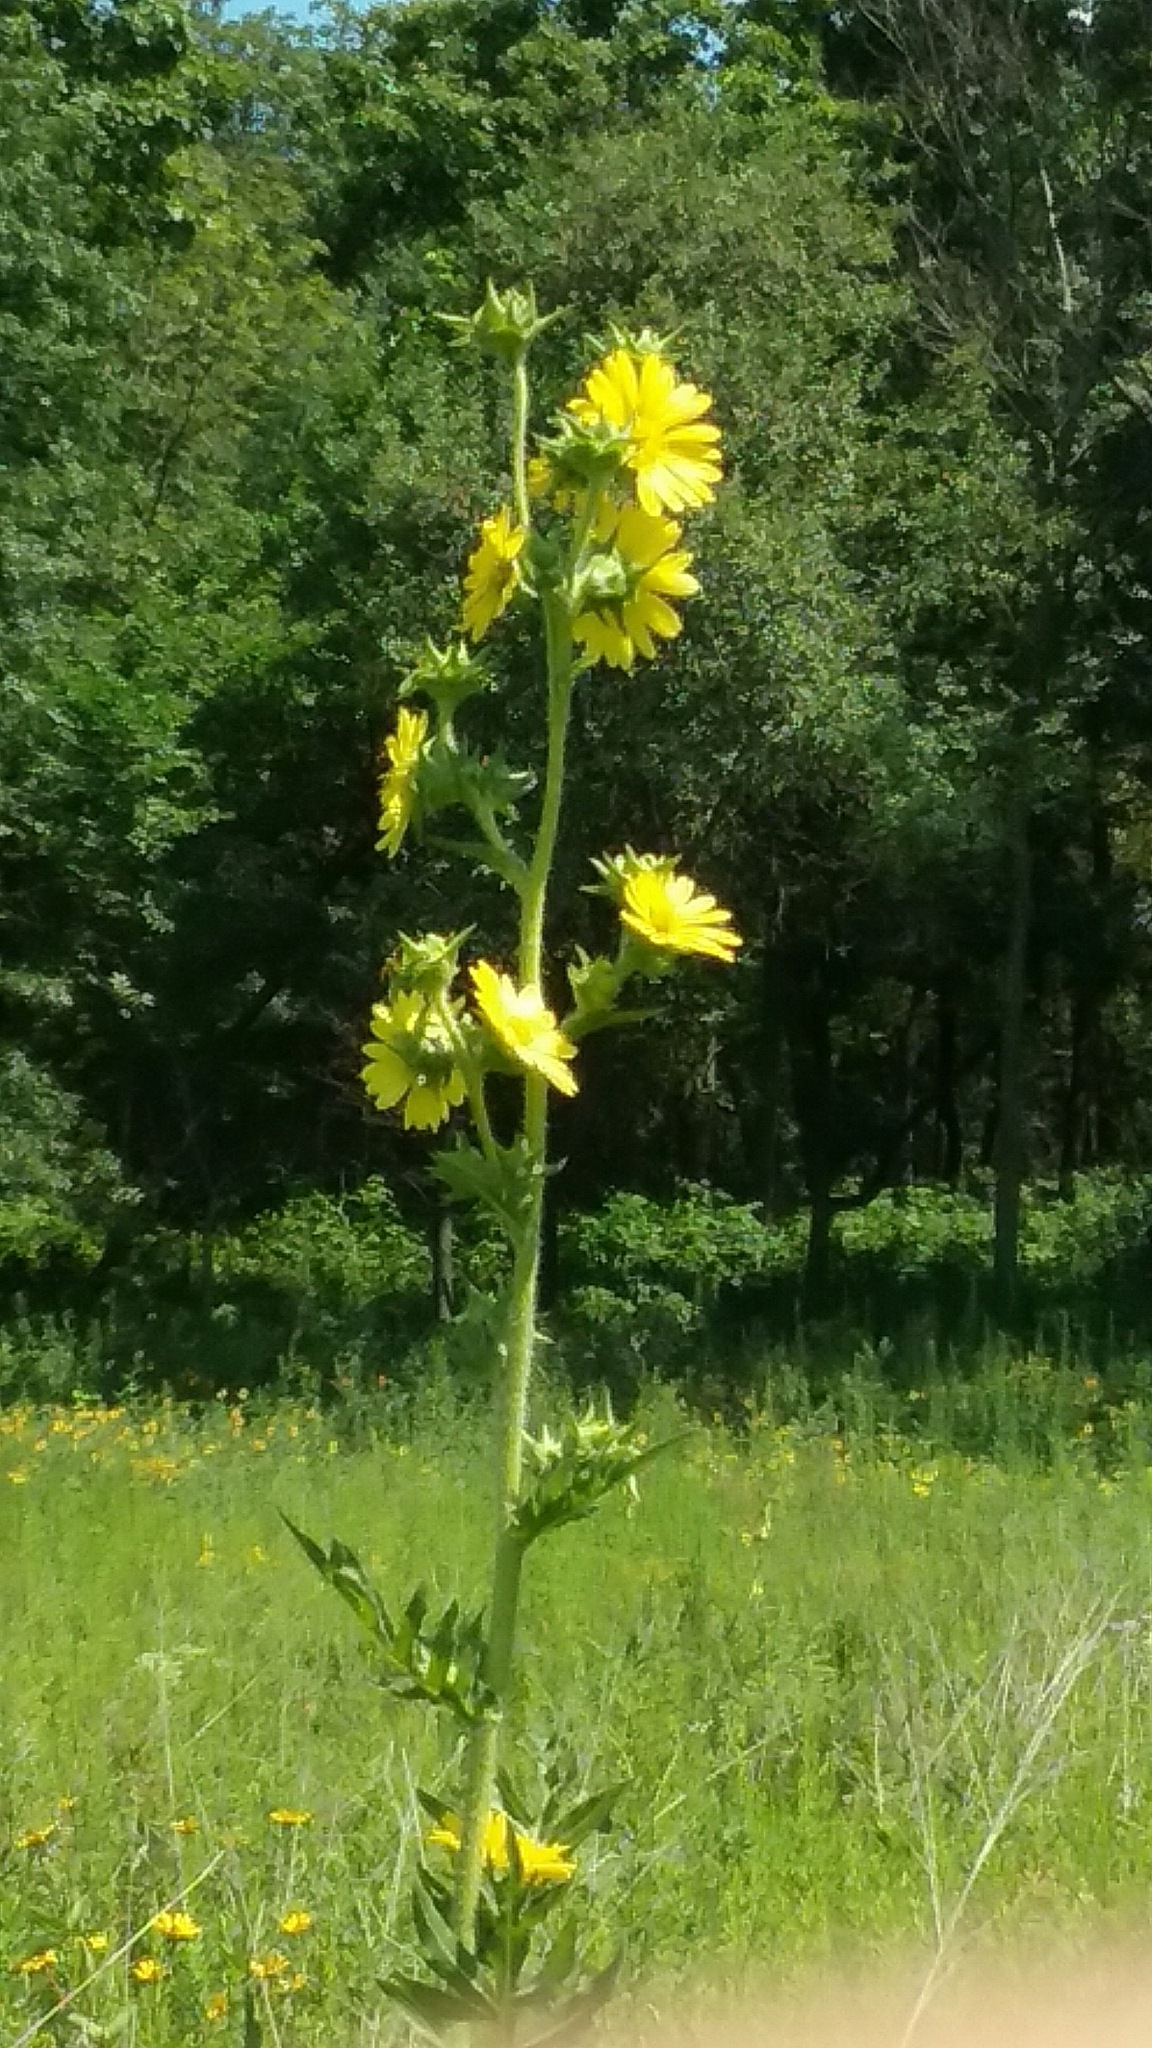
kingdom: Plantae
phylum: Tracheophyta
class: Magnoliopsida
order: Asterales
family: Asteraceae
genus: Silphium
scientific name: Silphium laciniatum
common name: Polarplant
